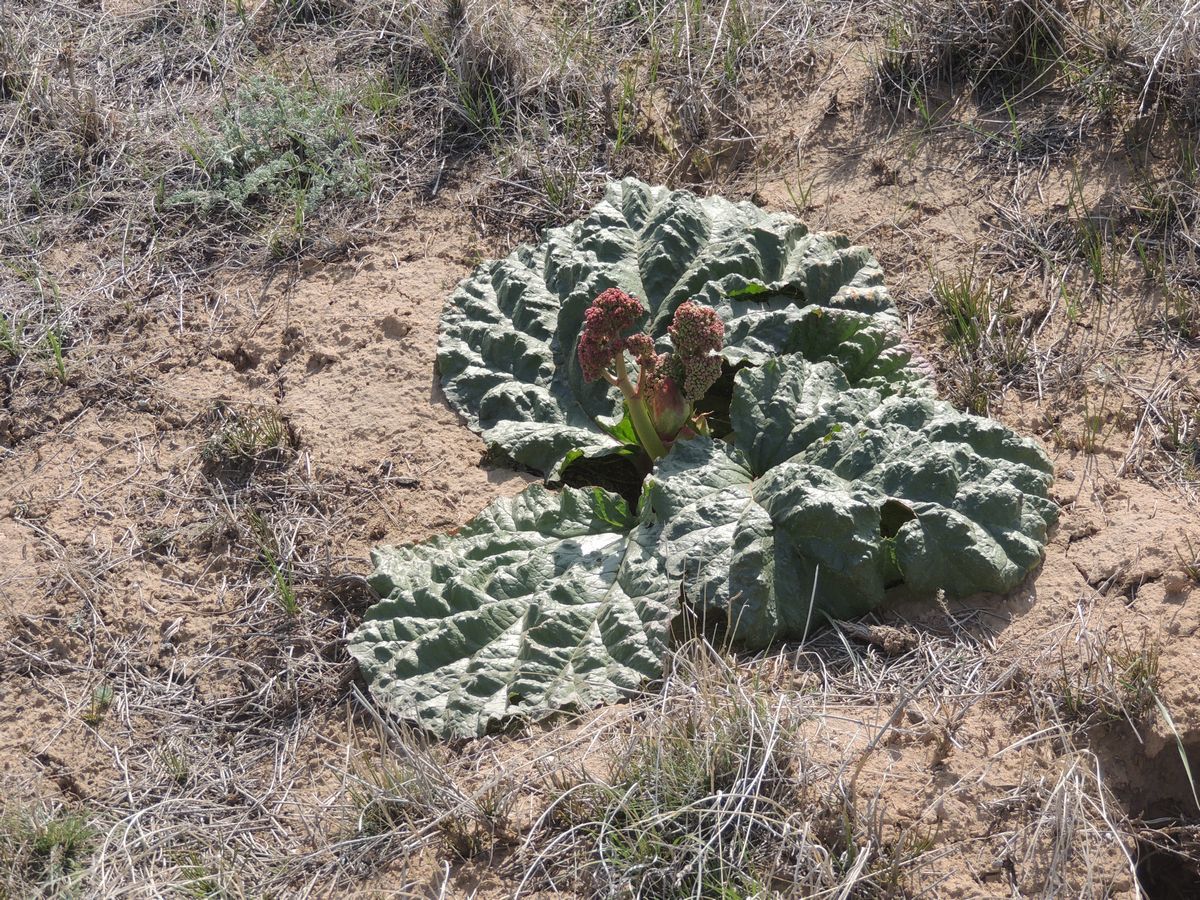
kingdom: Plantae
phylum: Tracheophyta
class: Magnoliopsida
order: Caryophyllales
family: Polygonaceae
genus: Rheum
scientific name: Rheum tataricum
